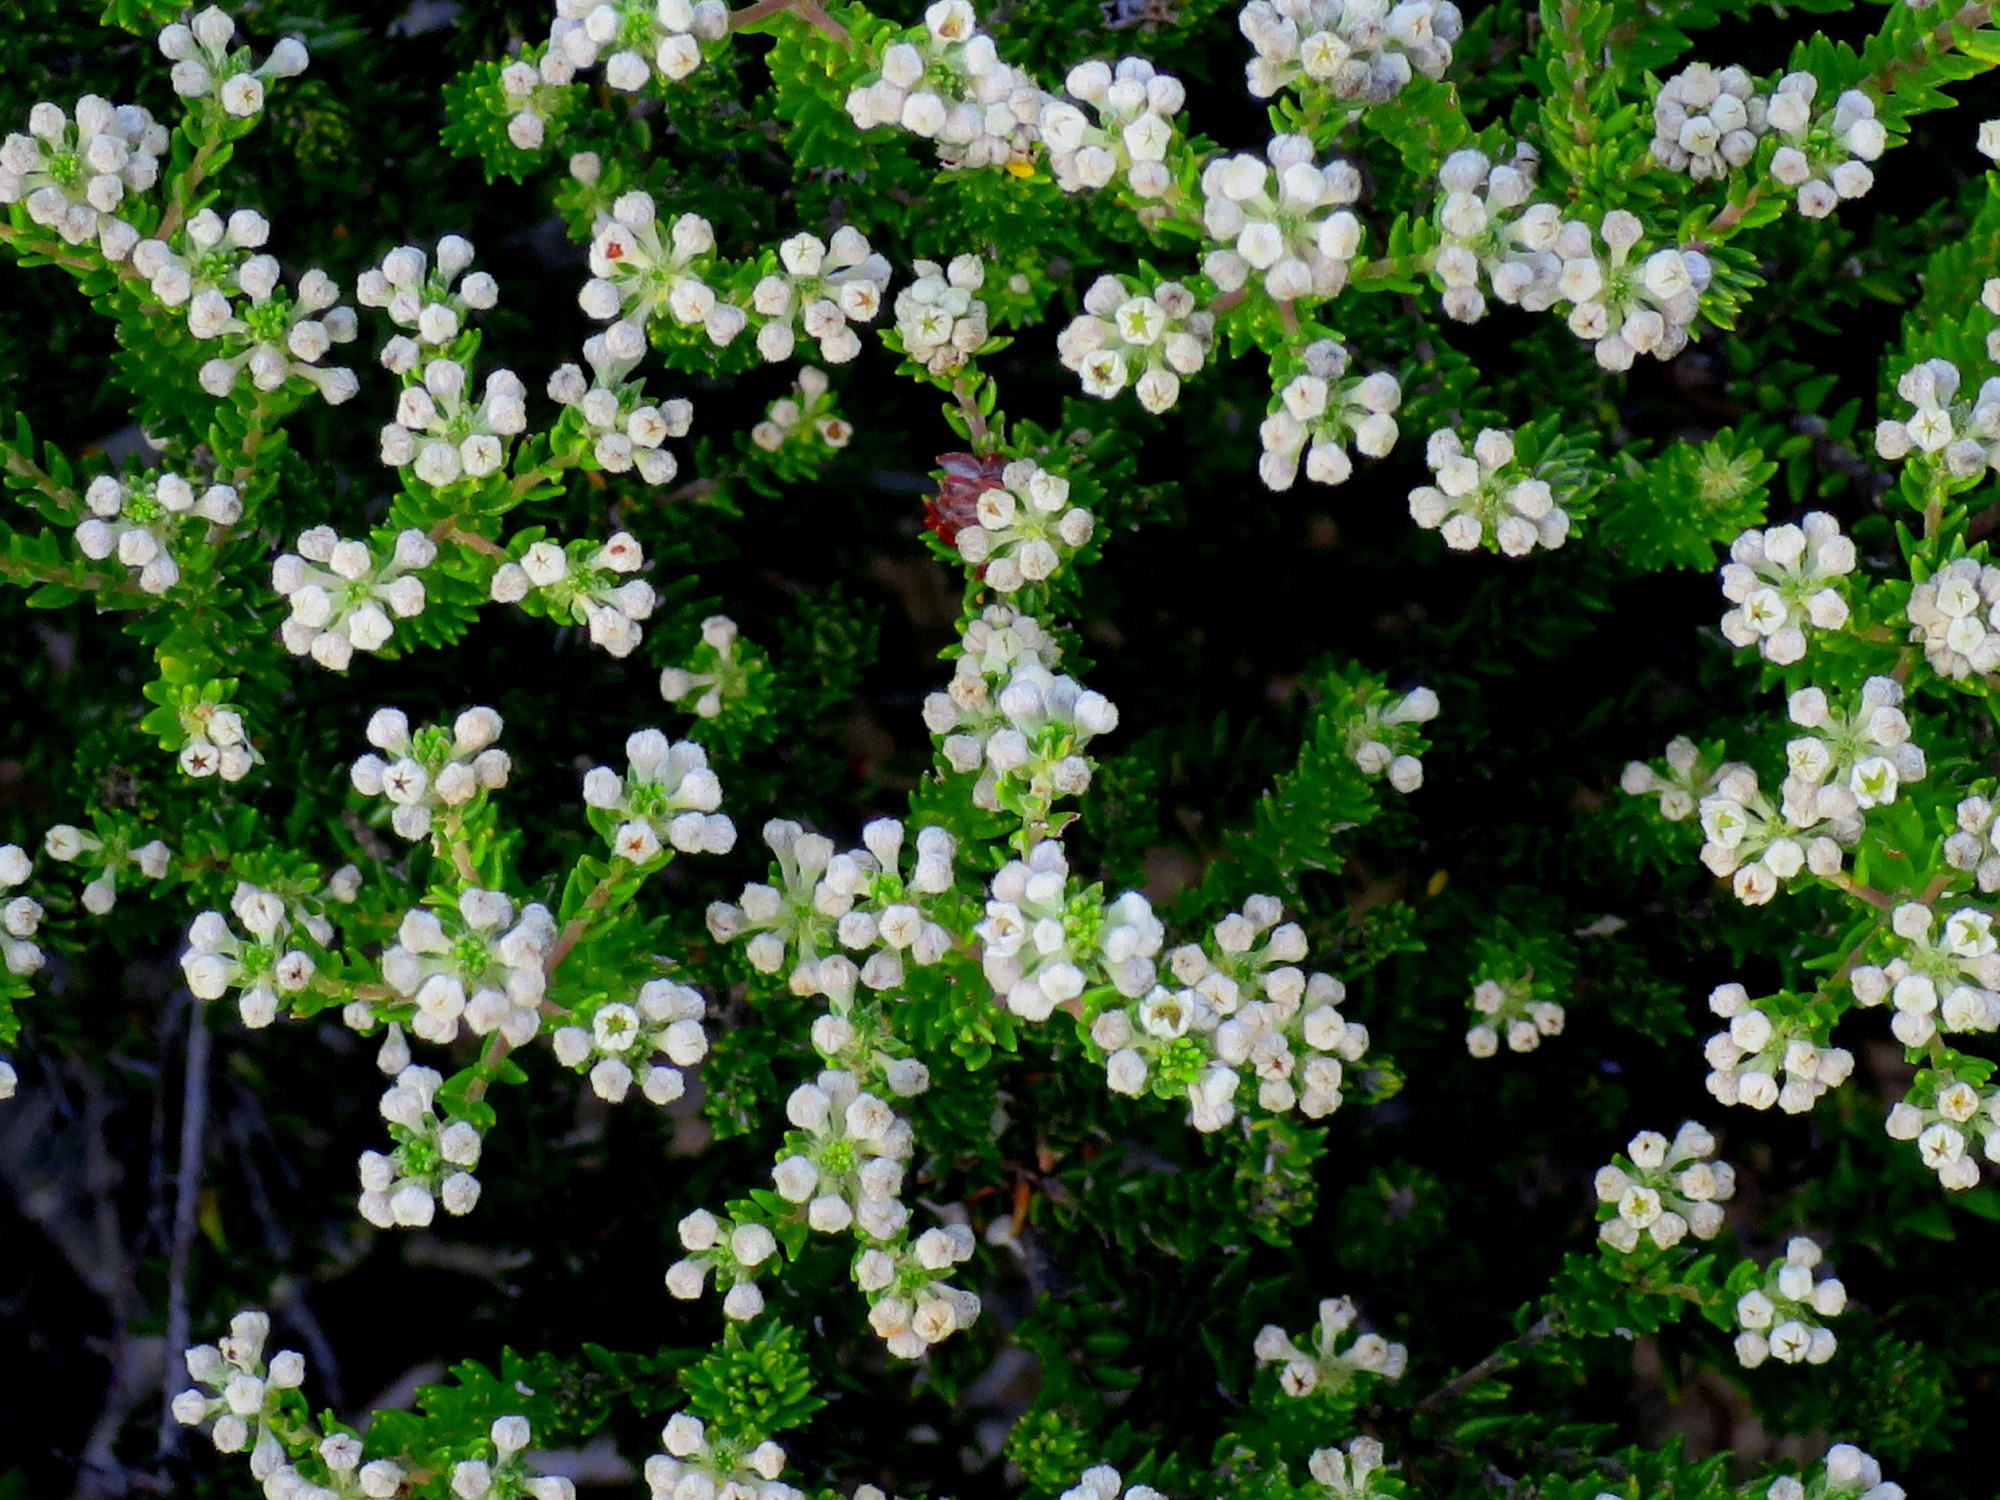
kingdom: Plantae
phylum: Tracheophyta
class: Magnoliopsida
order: Rosales
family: Rhamnaceae
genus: Phylica
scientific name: Phylica ericoides
